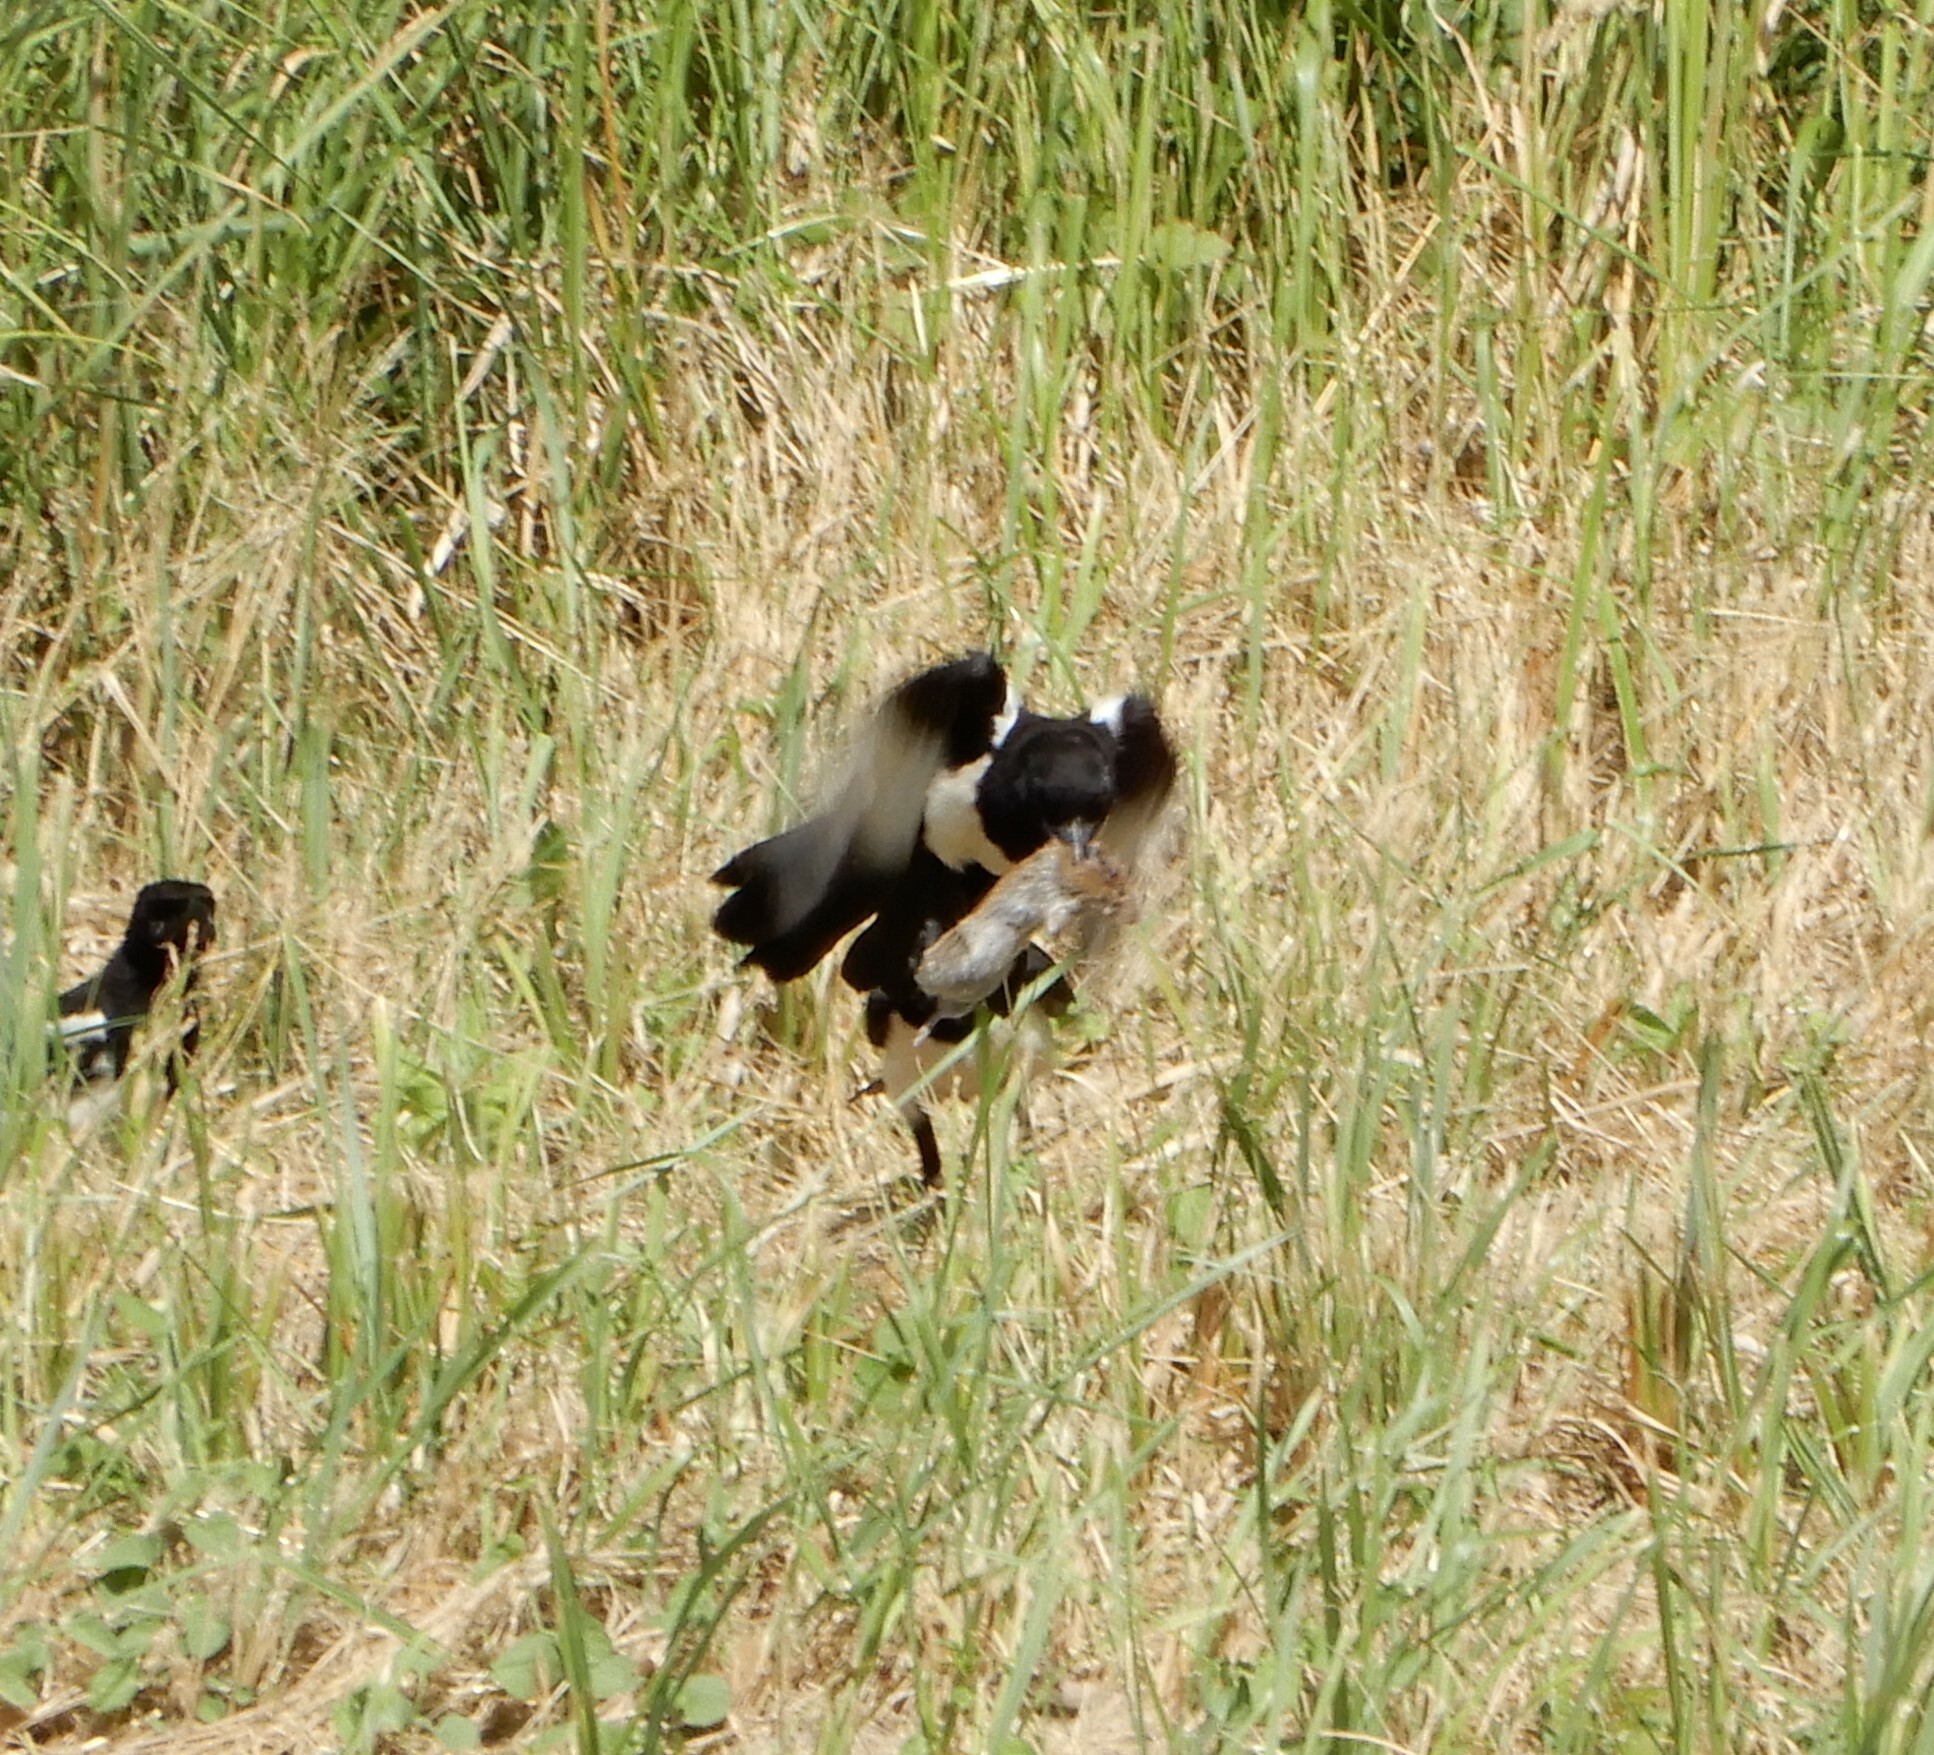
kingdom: Animalia
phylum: Chordata
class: Aves
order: Passeriformes
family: Corvidae
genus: Pica
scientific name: Pica pica
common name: Eurasian magpie
